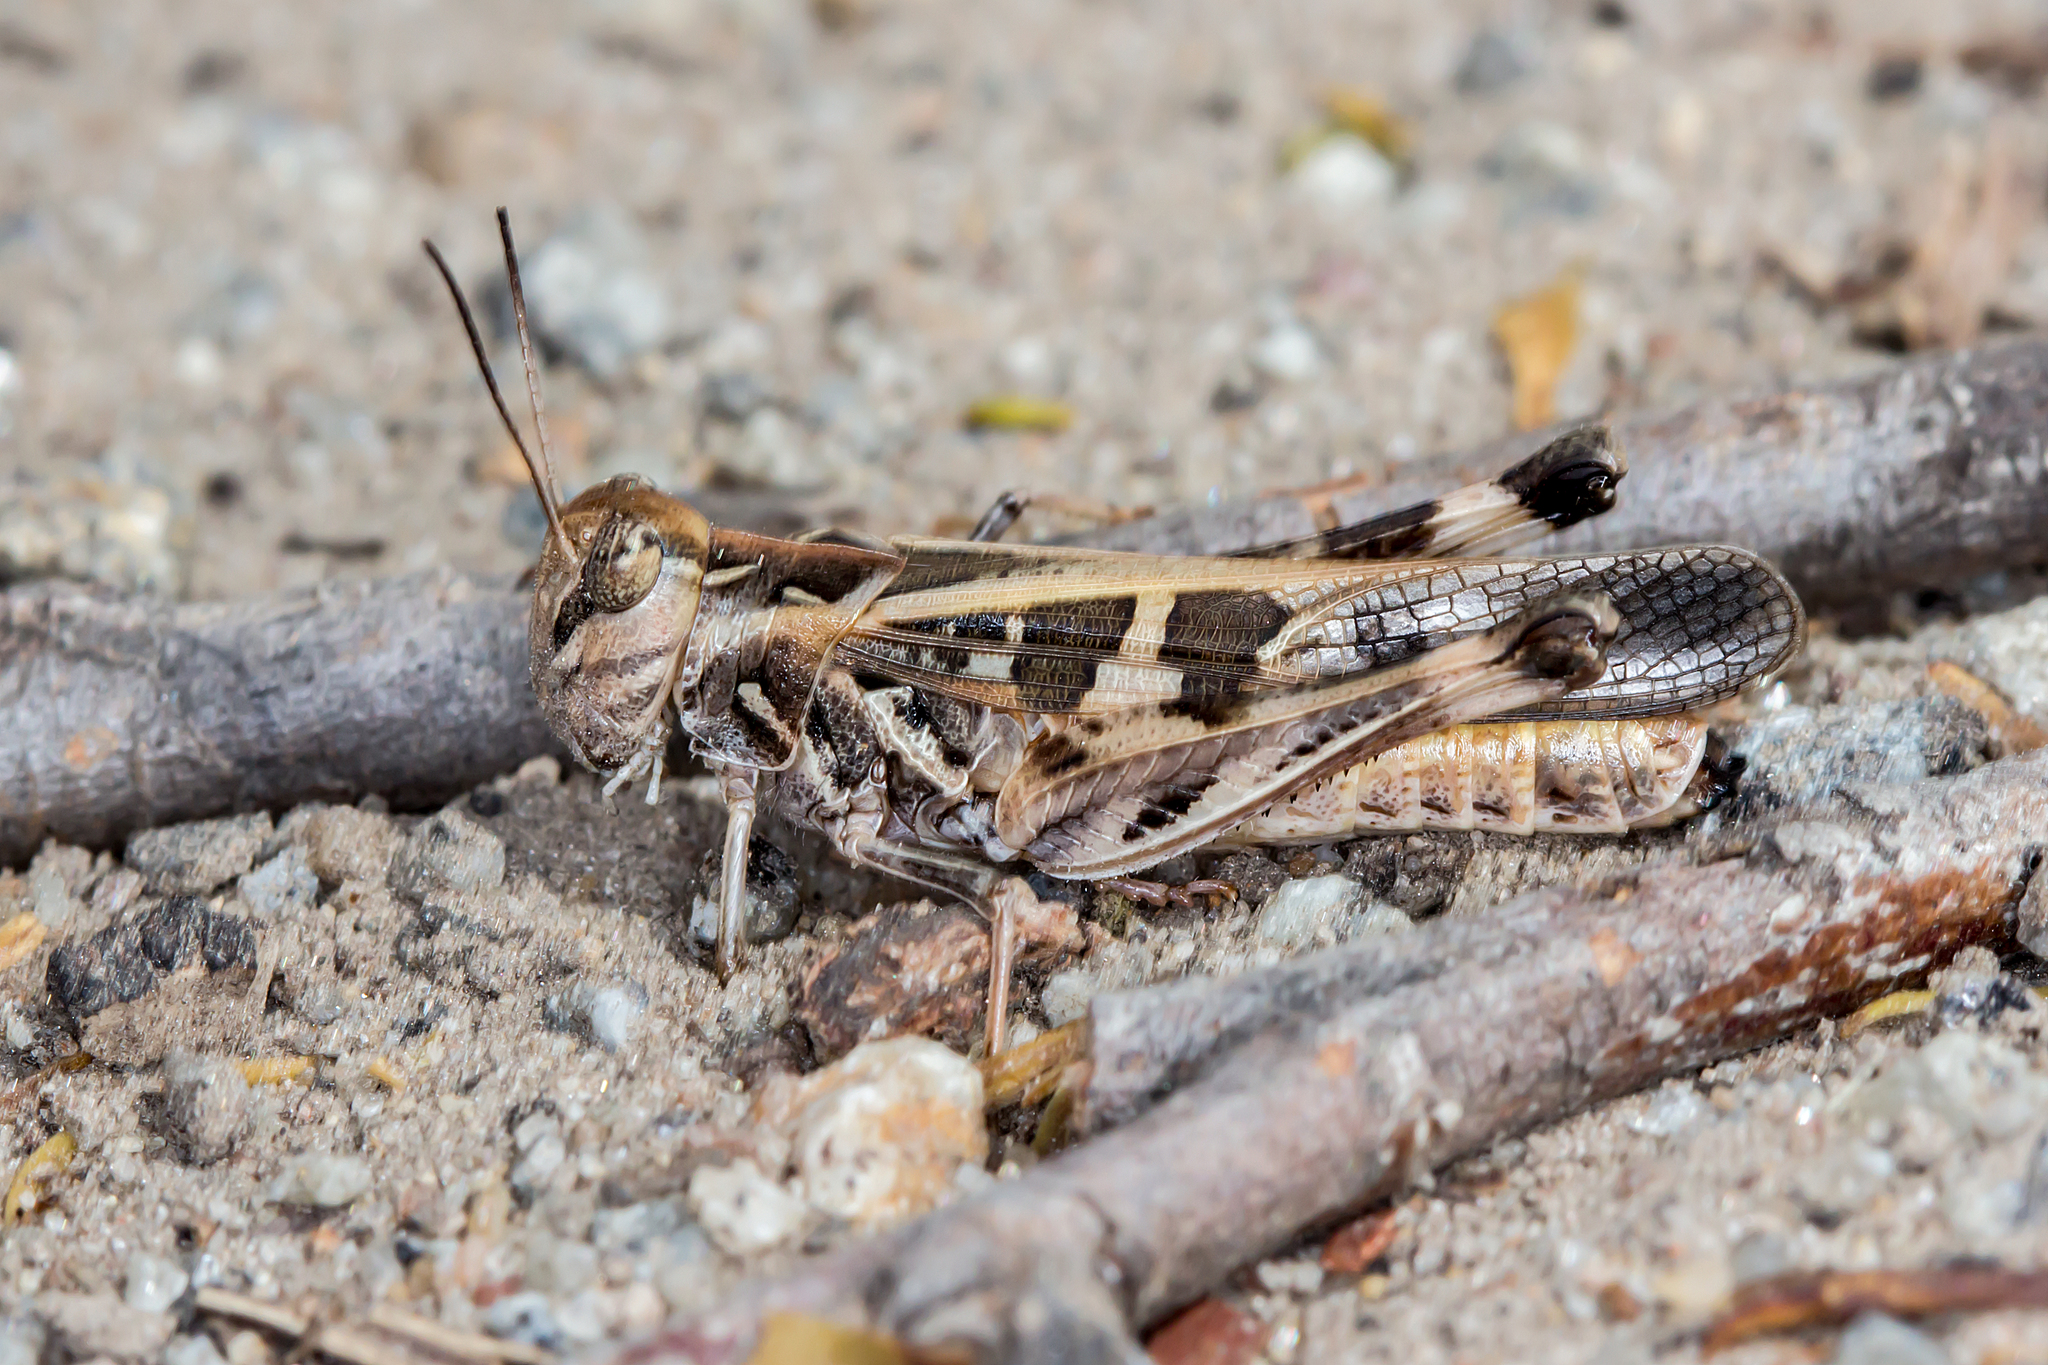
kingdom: Animalia
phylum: Arthropoda
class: Insecta
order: Orthoptera
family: Acrididae
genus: Oedaleus
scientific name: Oedaleus australis
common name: Eastern oedaleus
